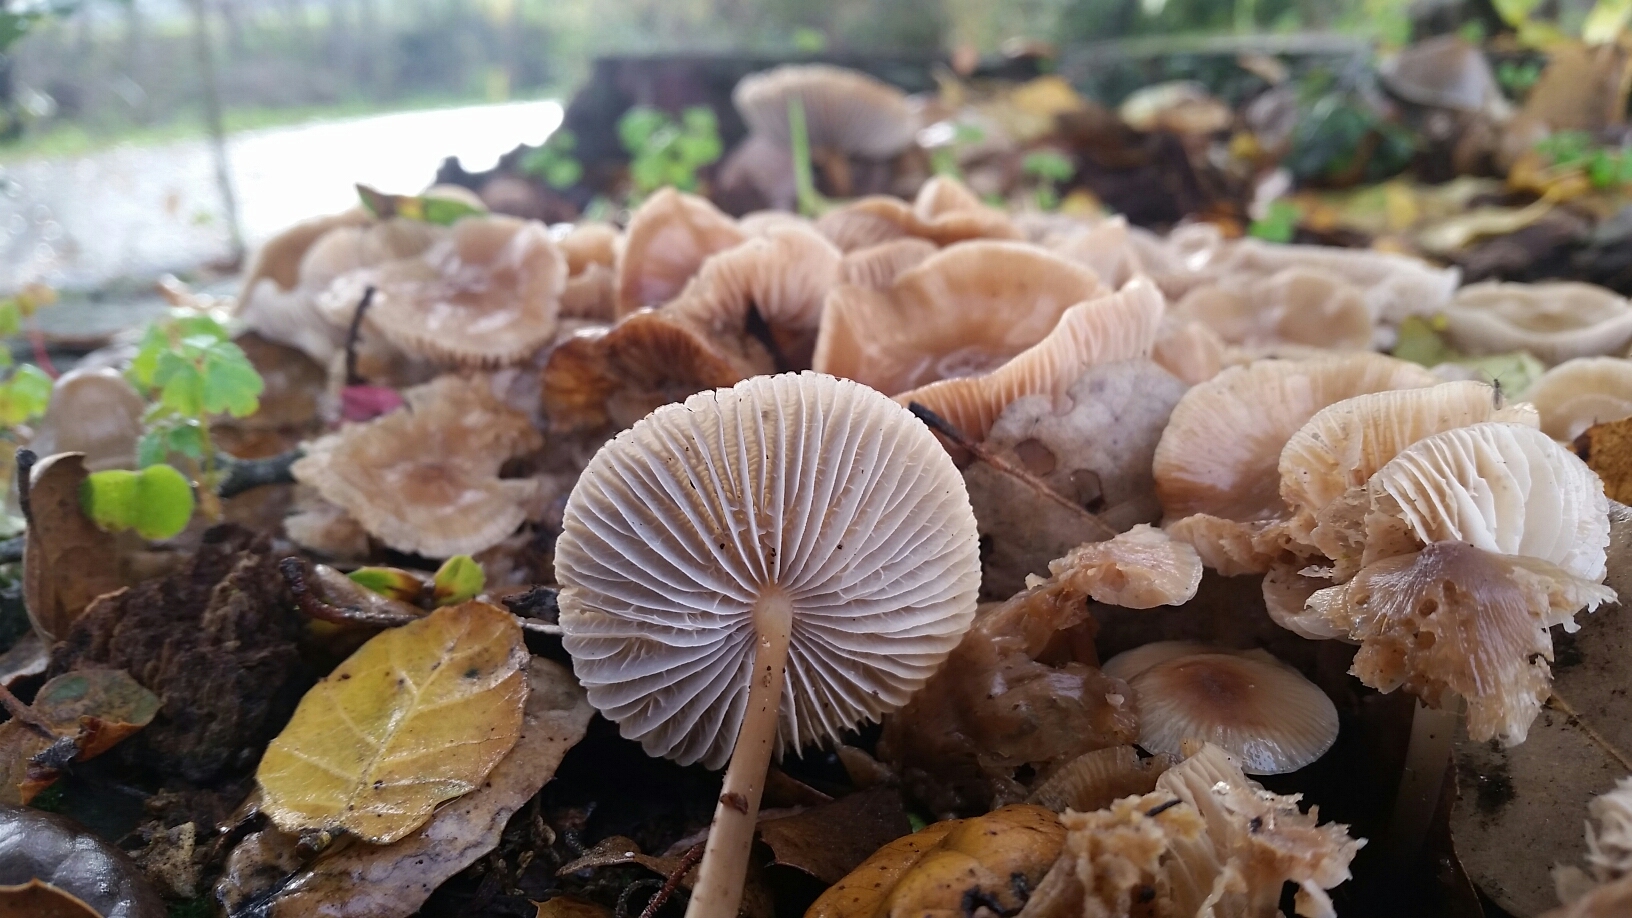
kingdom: Fungi
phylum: Basidiomycota
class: Agaricomycetes
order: Agaricales
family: Mycenaceae
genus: Mycena
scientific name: Mycena galericulata
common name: Bonnet mycena
